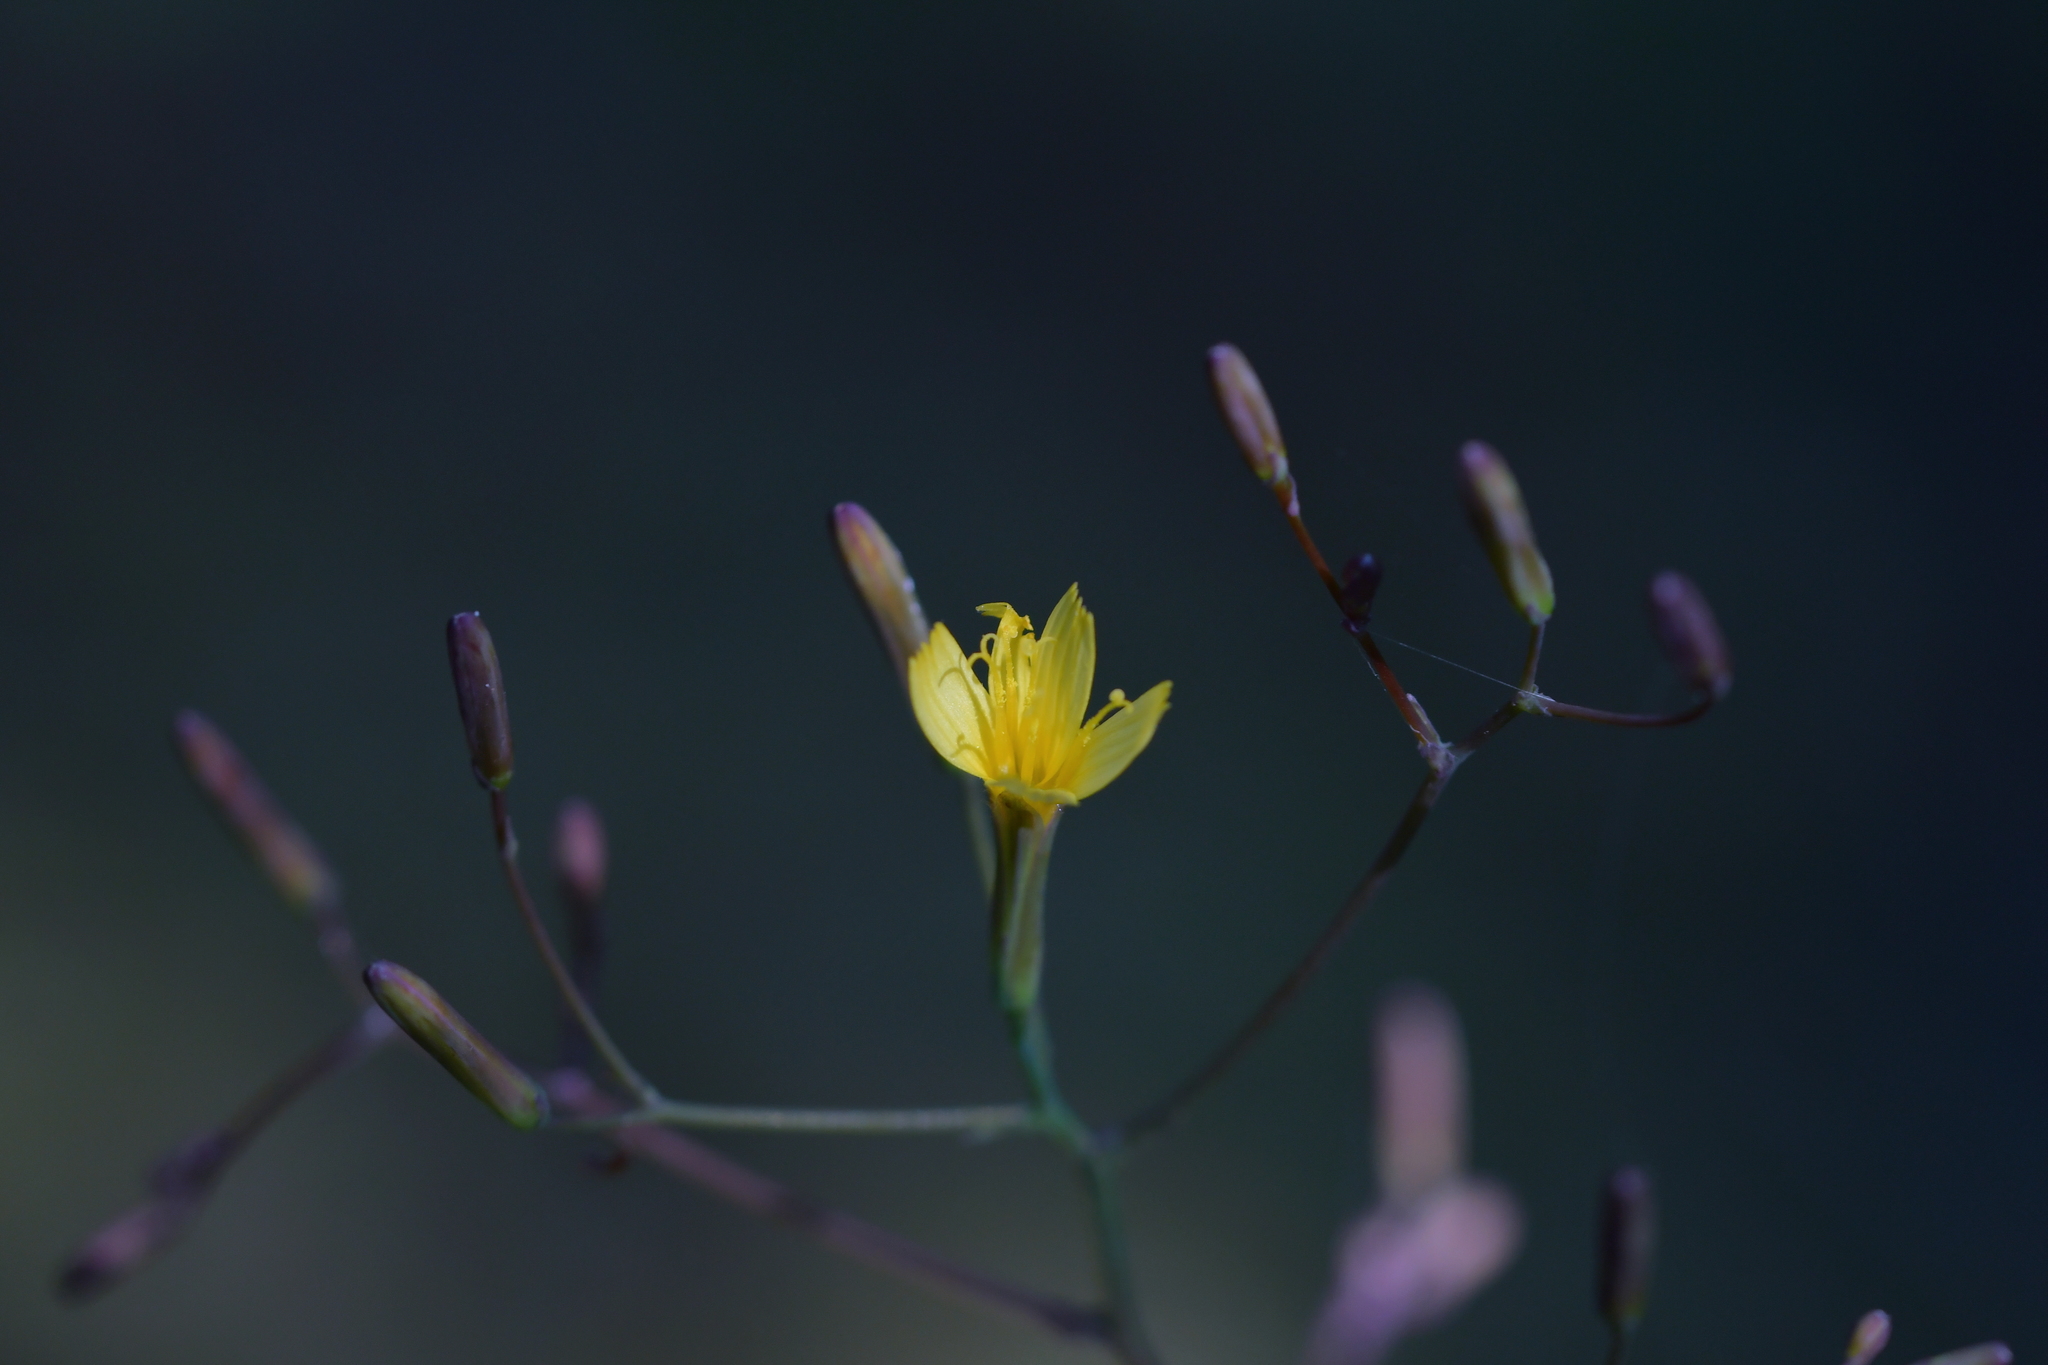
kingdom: Plantae
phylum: Tracheophyta
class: Magnoliopsida
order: Asterales
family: Asteraceae
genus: Mycelis
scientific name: Mycelis muralis
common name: Wall lettuce
